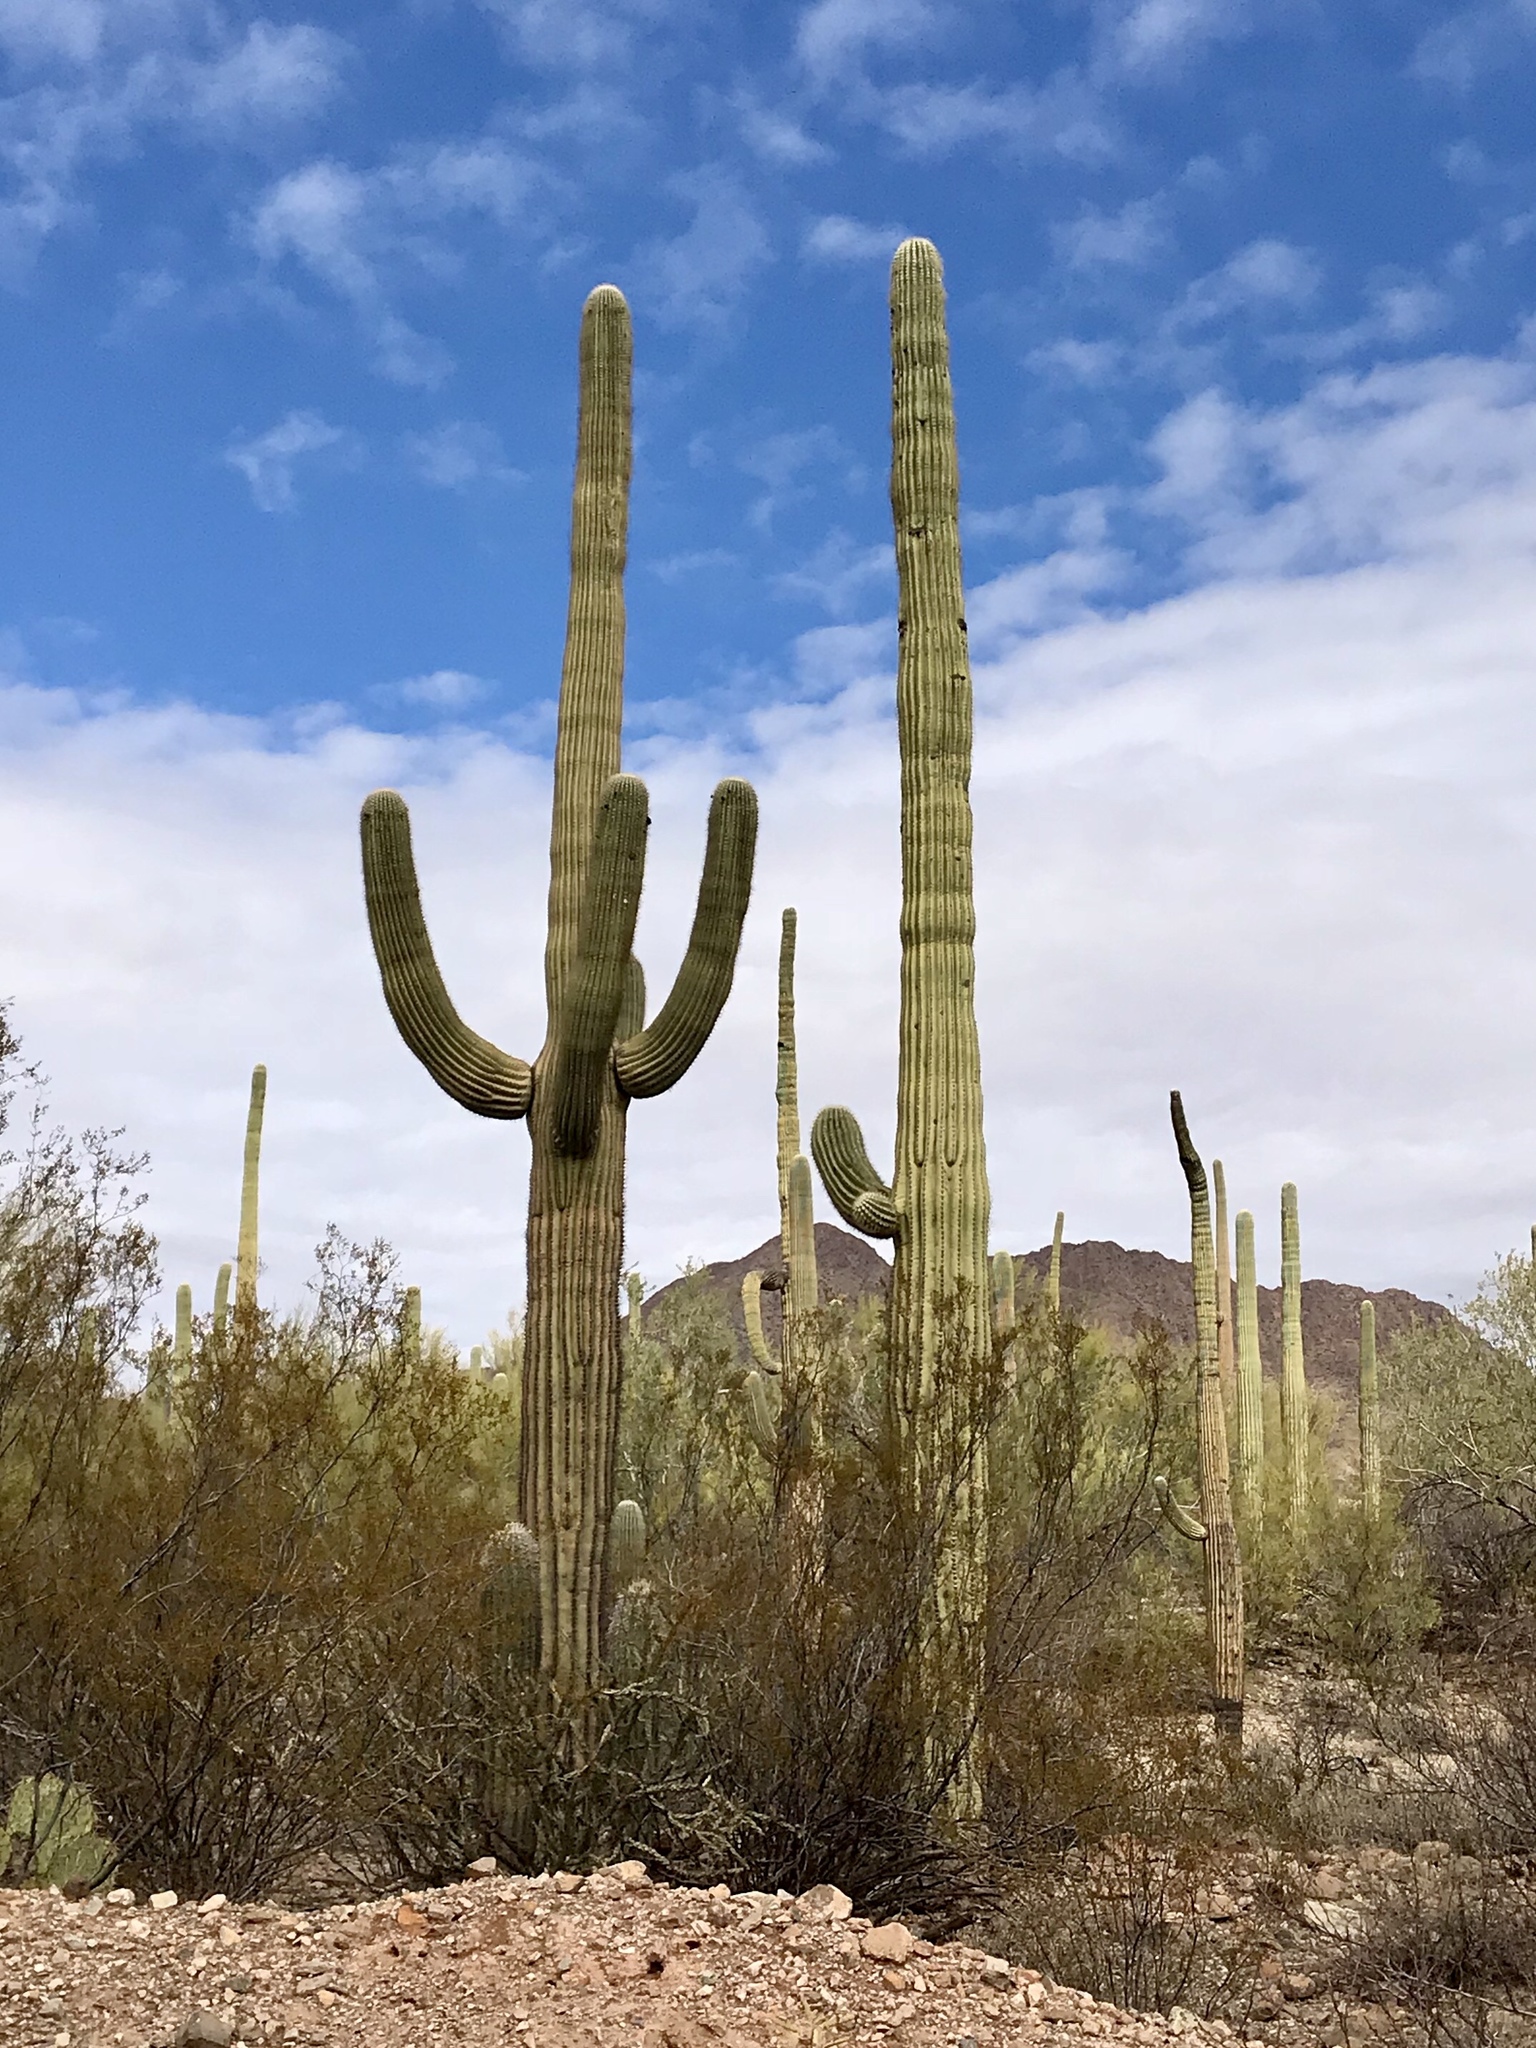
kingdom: Plantae
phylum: Tracheophyta
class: Magnoliopsida
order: Caryophyllales
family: Cactaceae
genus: Carnegiea
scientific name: Carnegiea gigantea
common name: Saguaro
